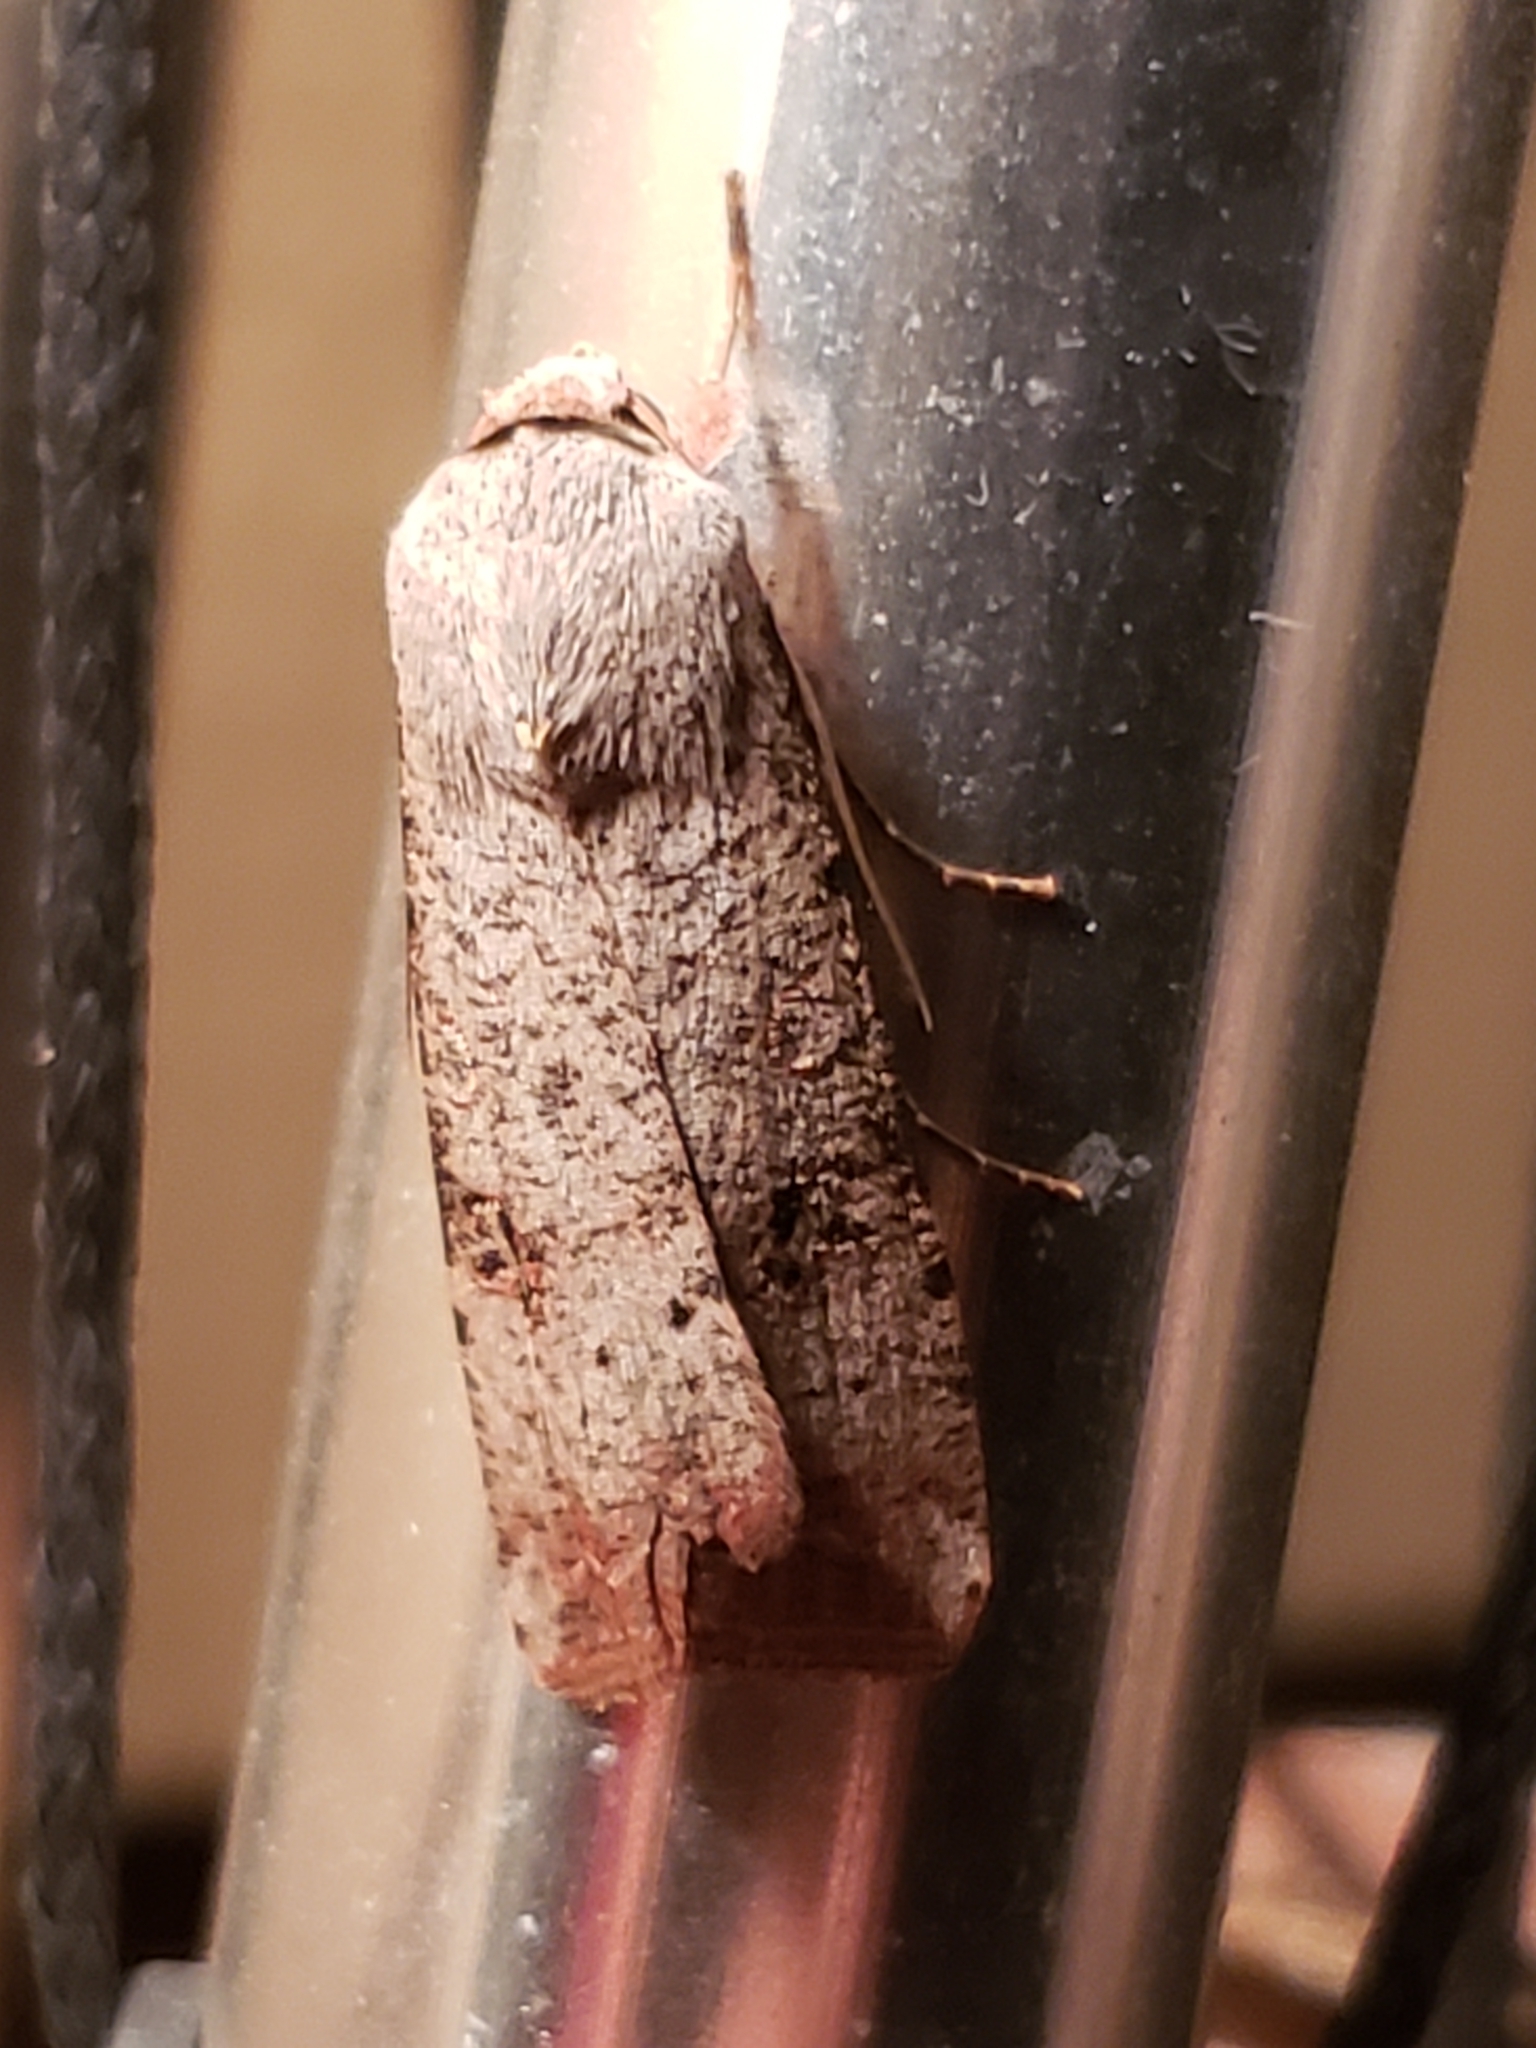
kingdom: Animalia
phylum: Arthropoda
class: Insecta
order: Lepidoptera
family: Noctuidae
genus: Anicla
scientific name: Anicla infecta
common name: Green cutworm
